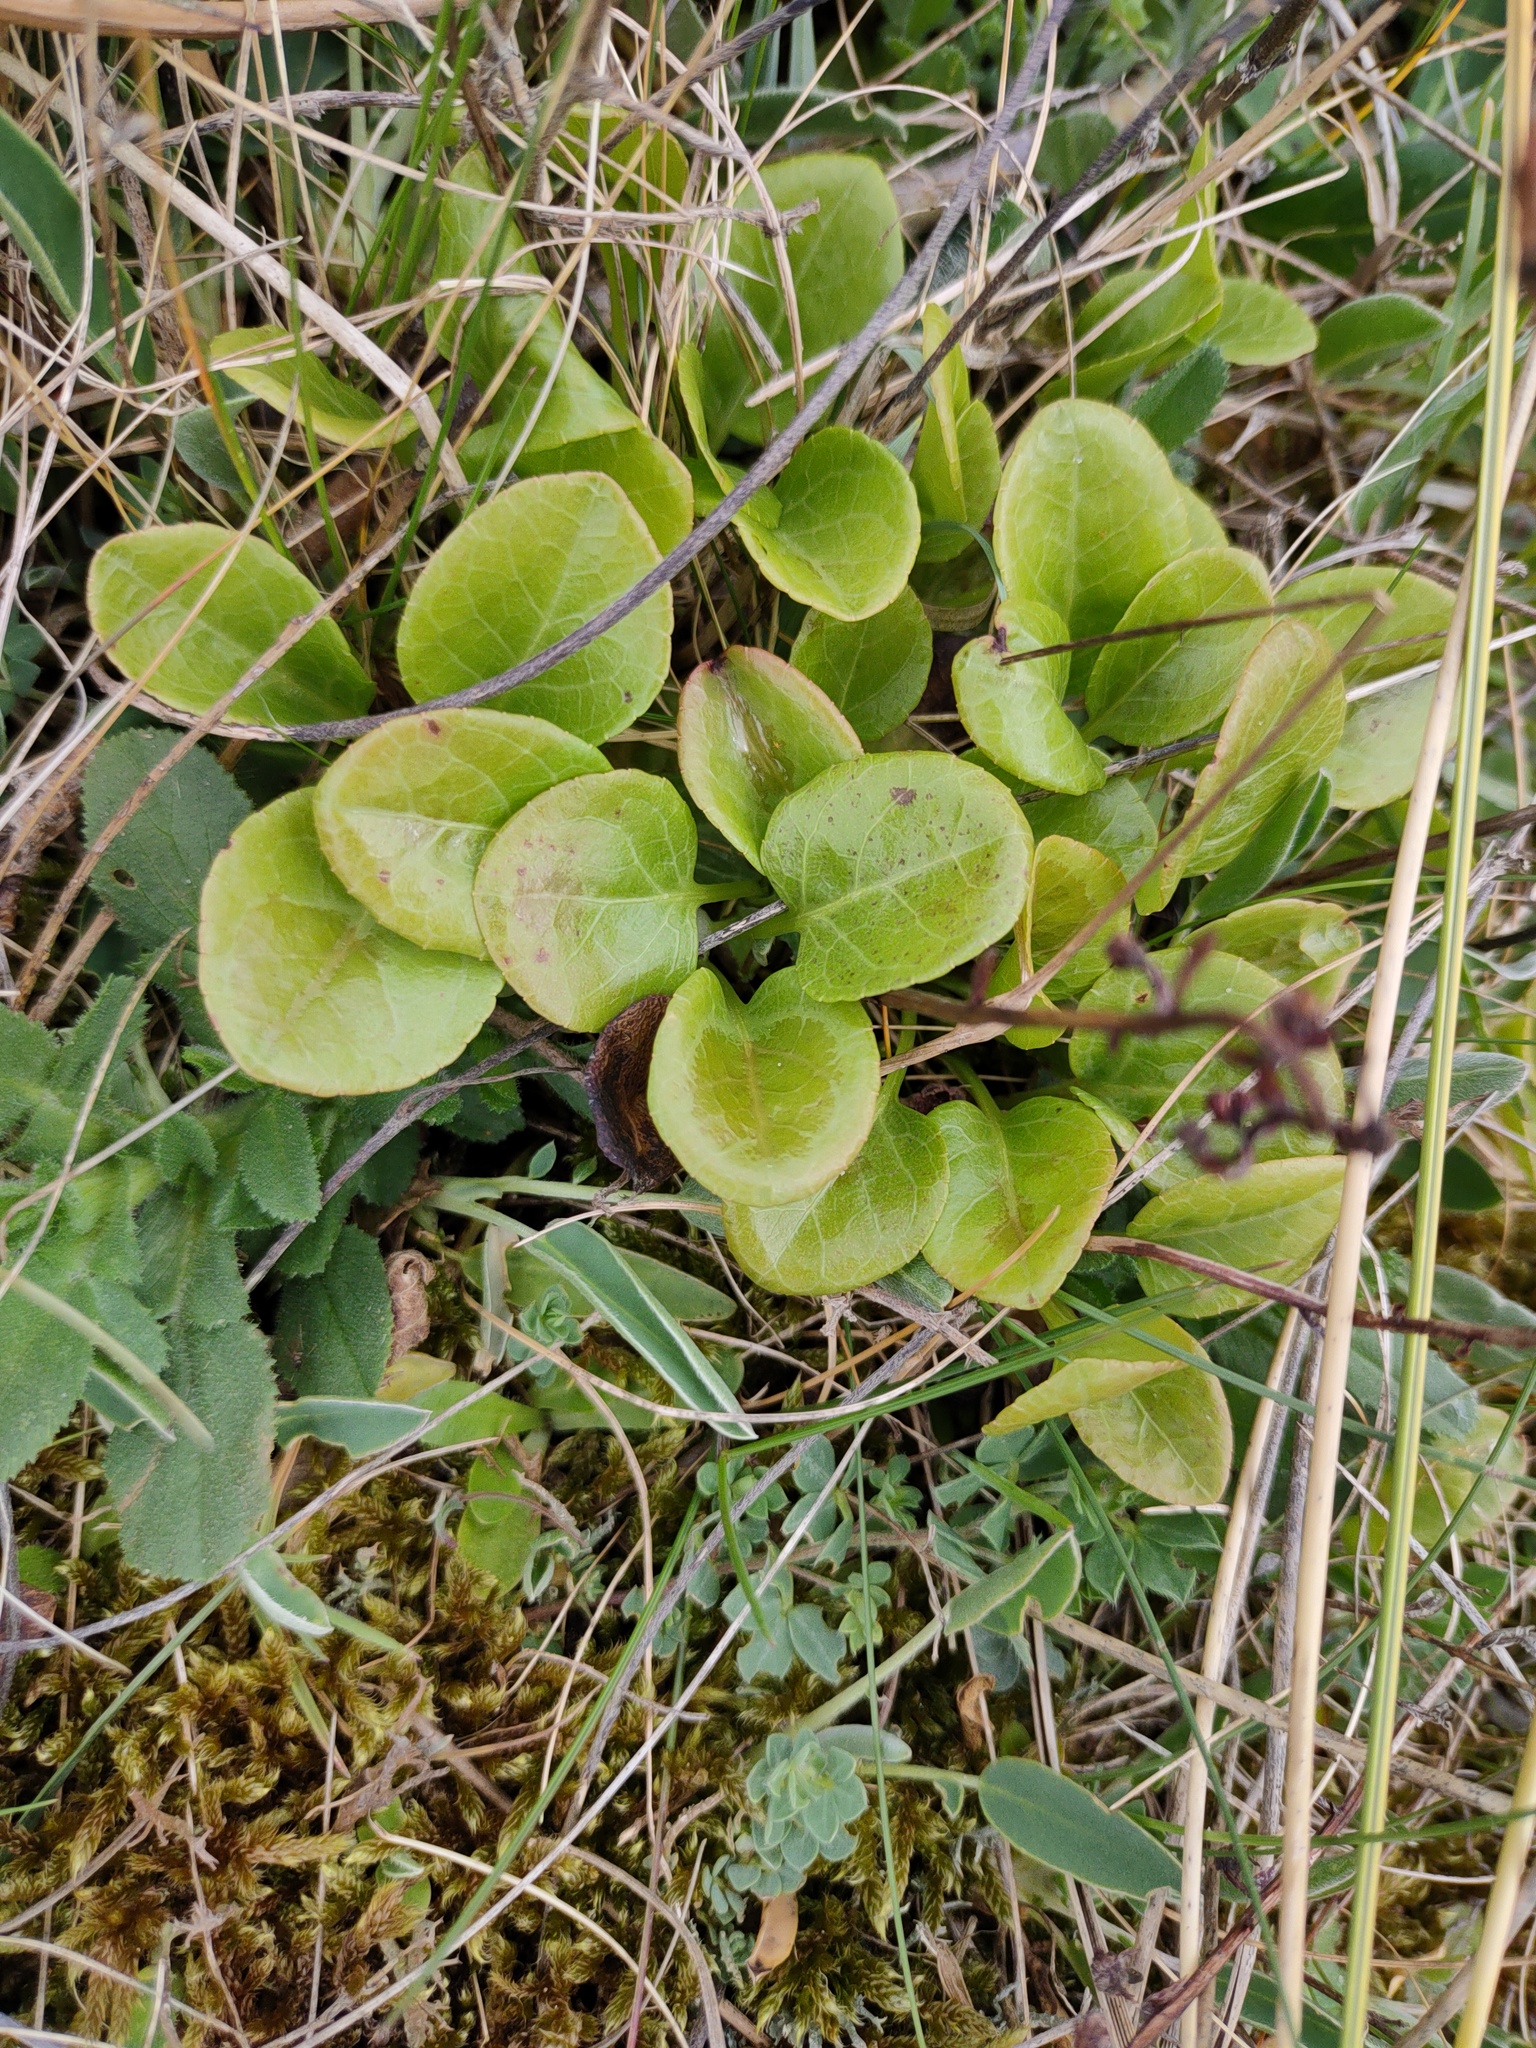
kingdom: Plantae
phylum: Tracheophyta
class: Magnoliopsida
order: Ericales
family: Ericaceae
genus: Pyrola
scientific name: Pyrola rotundifolia
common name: Round-leaved wintergreen
